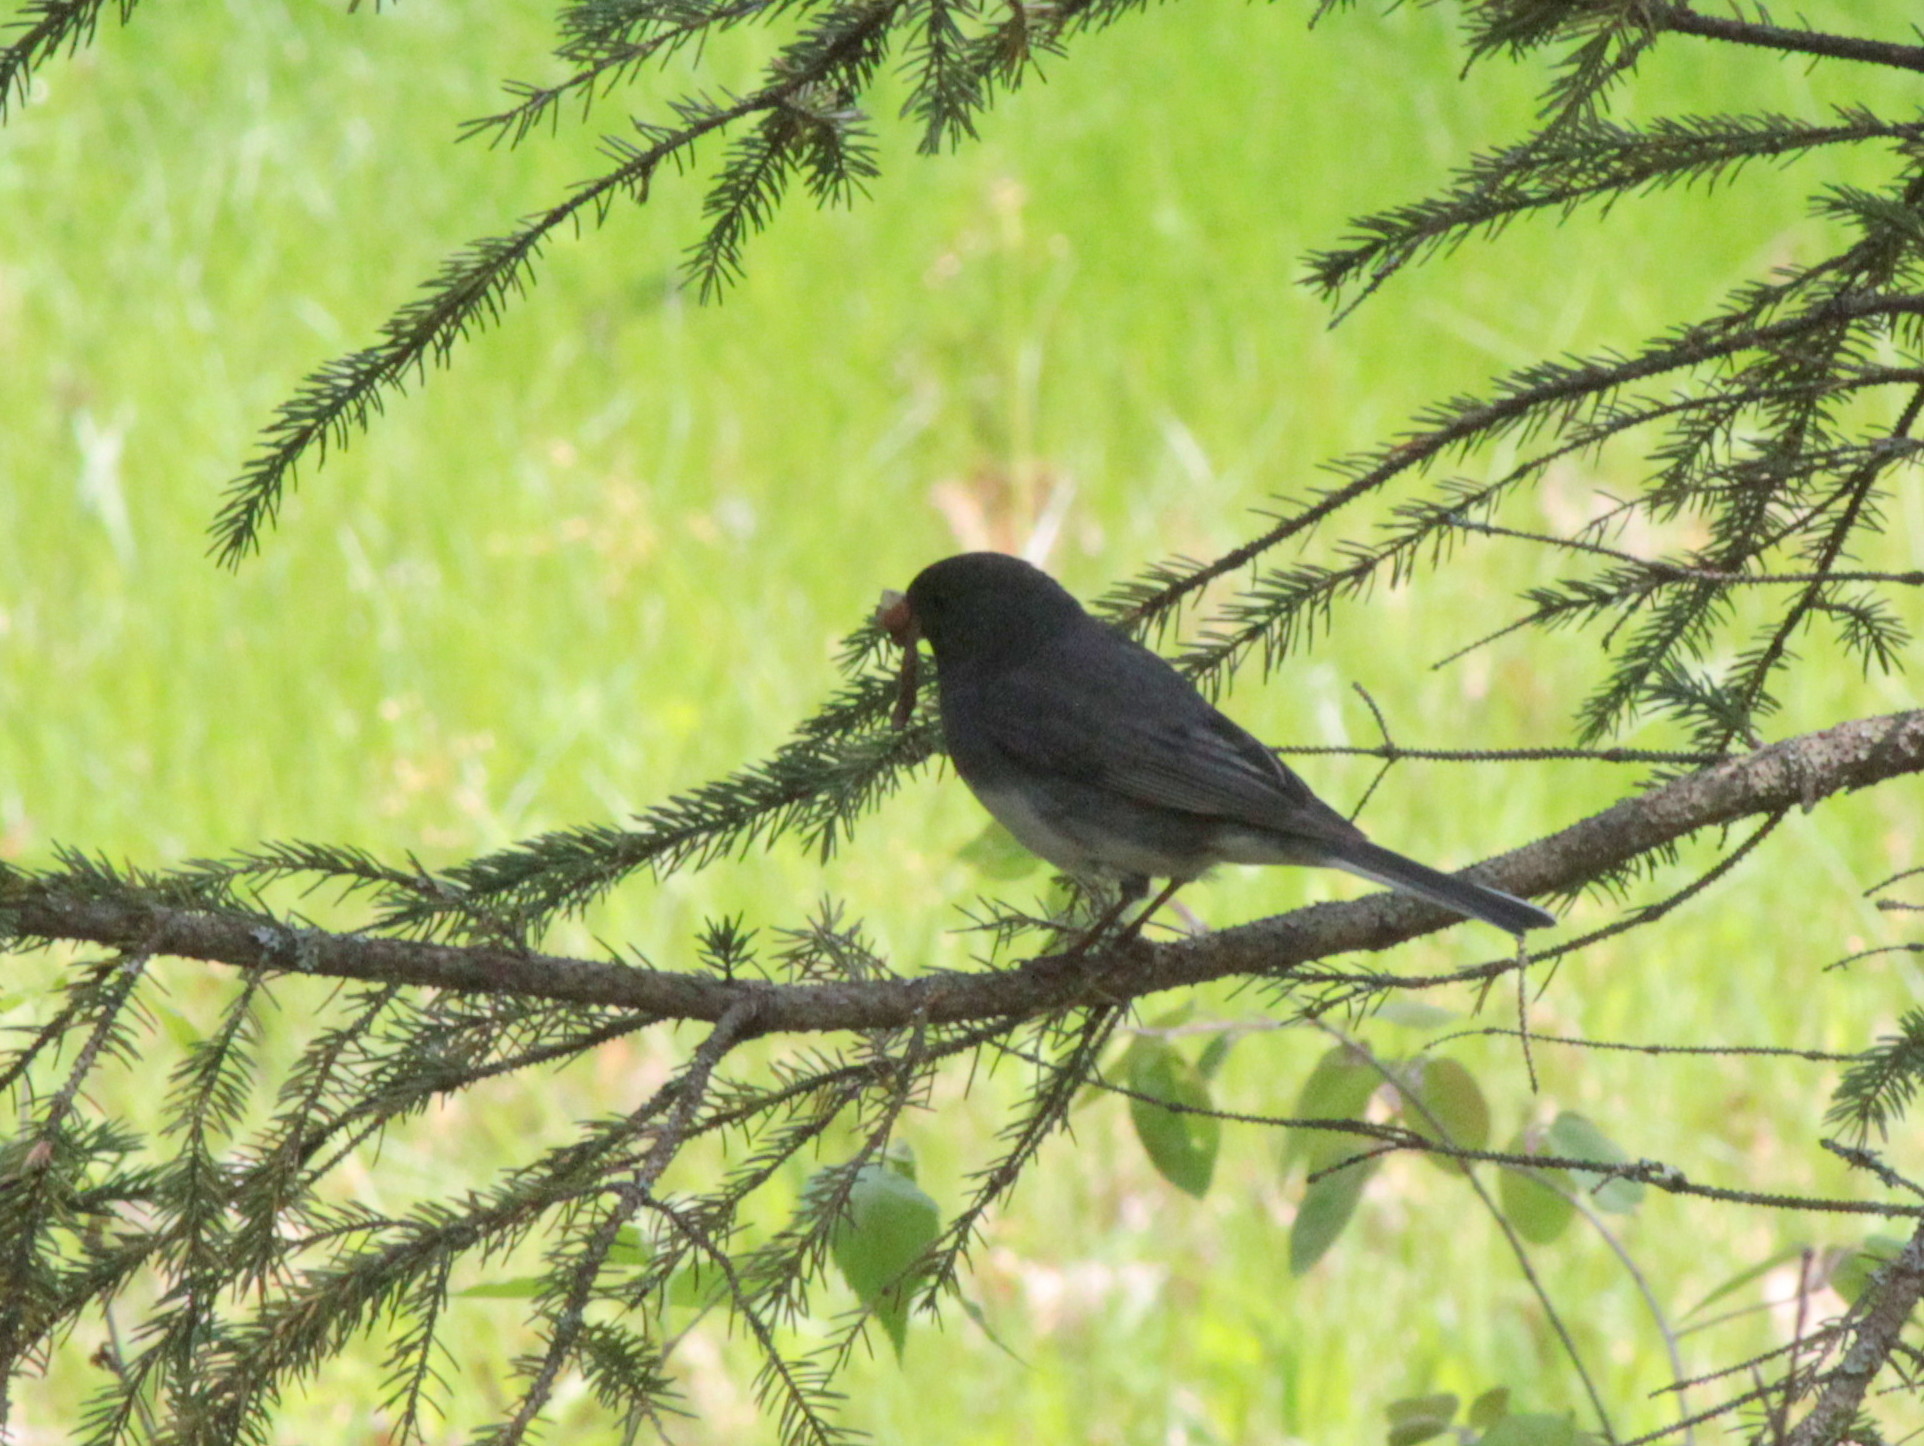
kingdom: Animalia
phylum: Chordata
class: Aves
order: Passeriformes
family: Passerellidae
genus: Junco
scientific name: Junco hyemalis
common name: Dark-eyed junco
